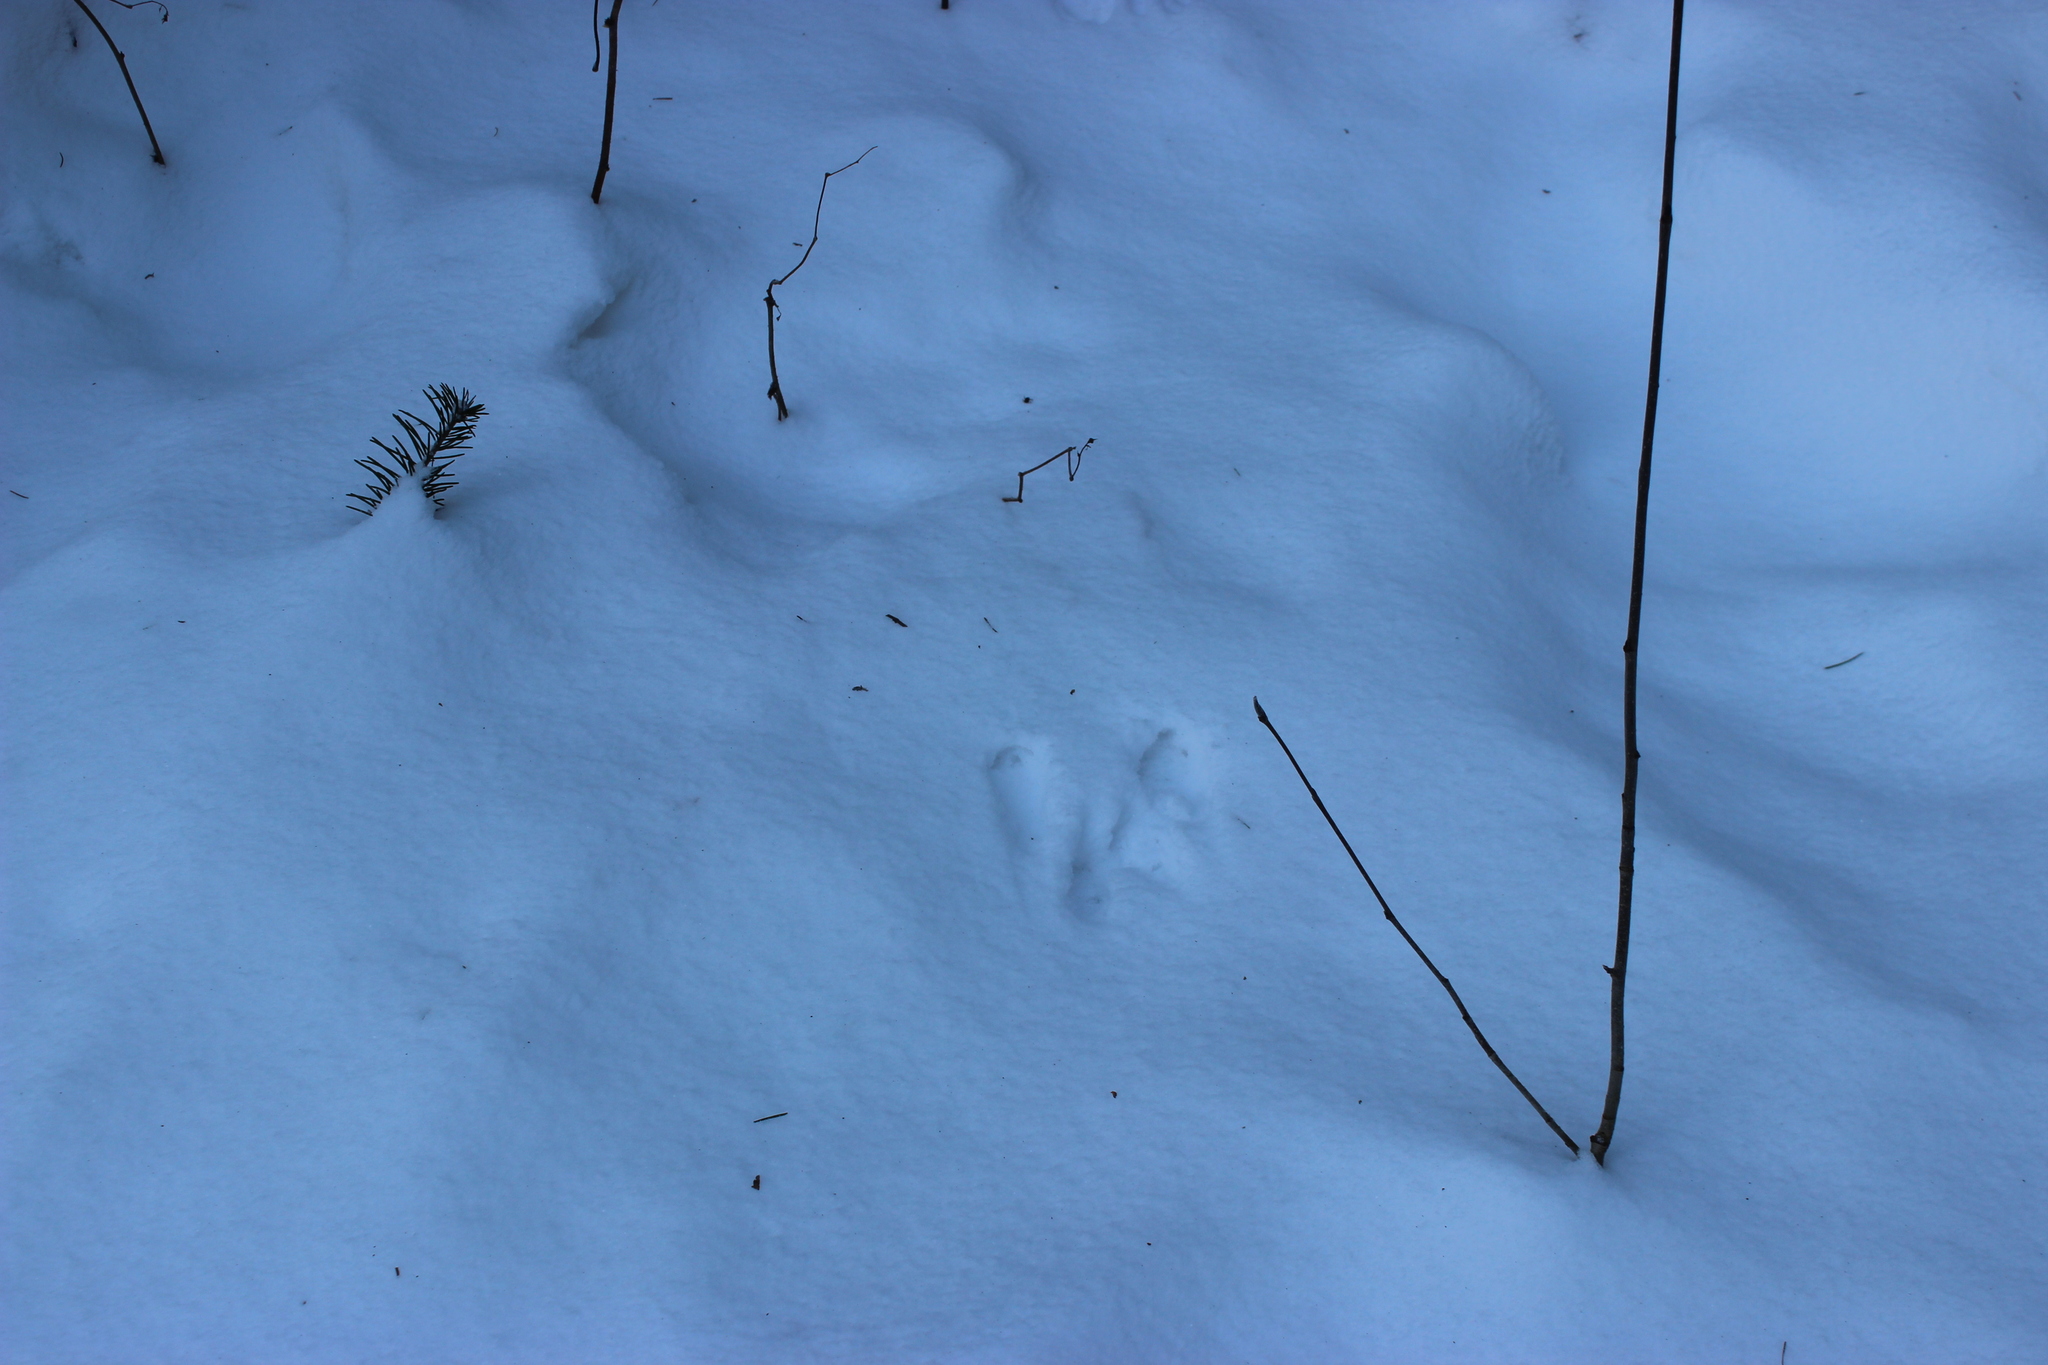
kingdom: Animalia
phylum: Chordata
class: Mammalia
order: Rodentia
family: Sciuridae
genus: Sciurus
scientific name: Sciurus vulgaris
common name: Eurasian red squirrel
